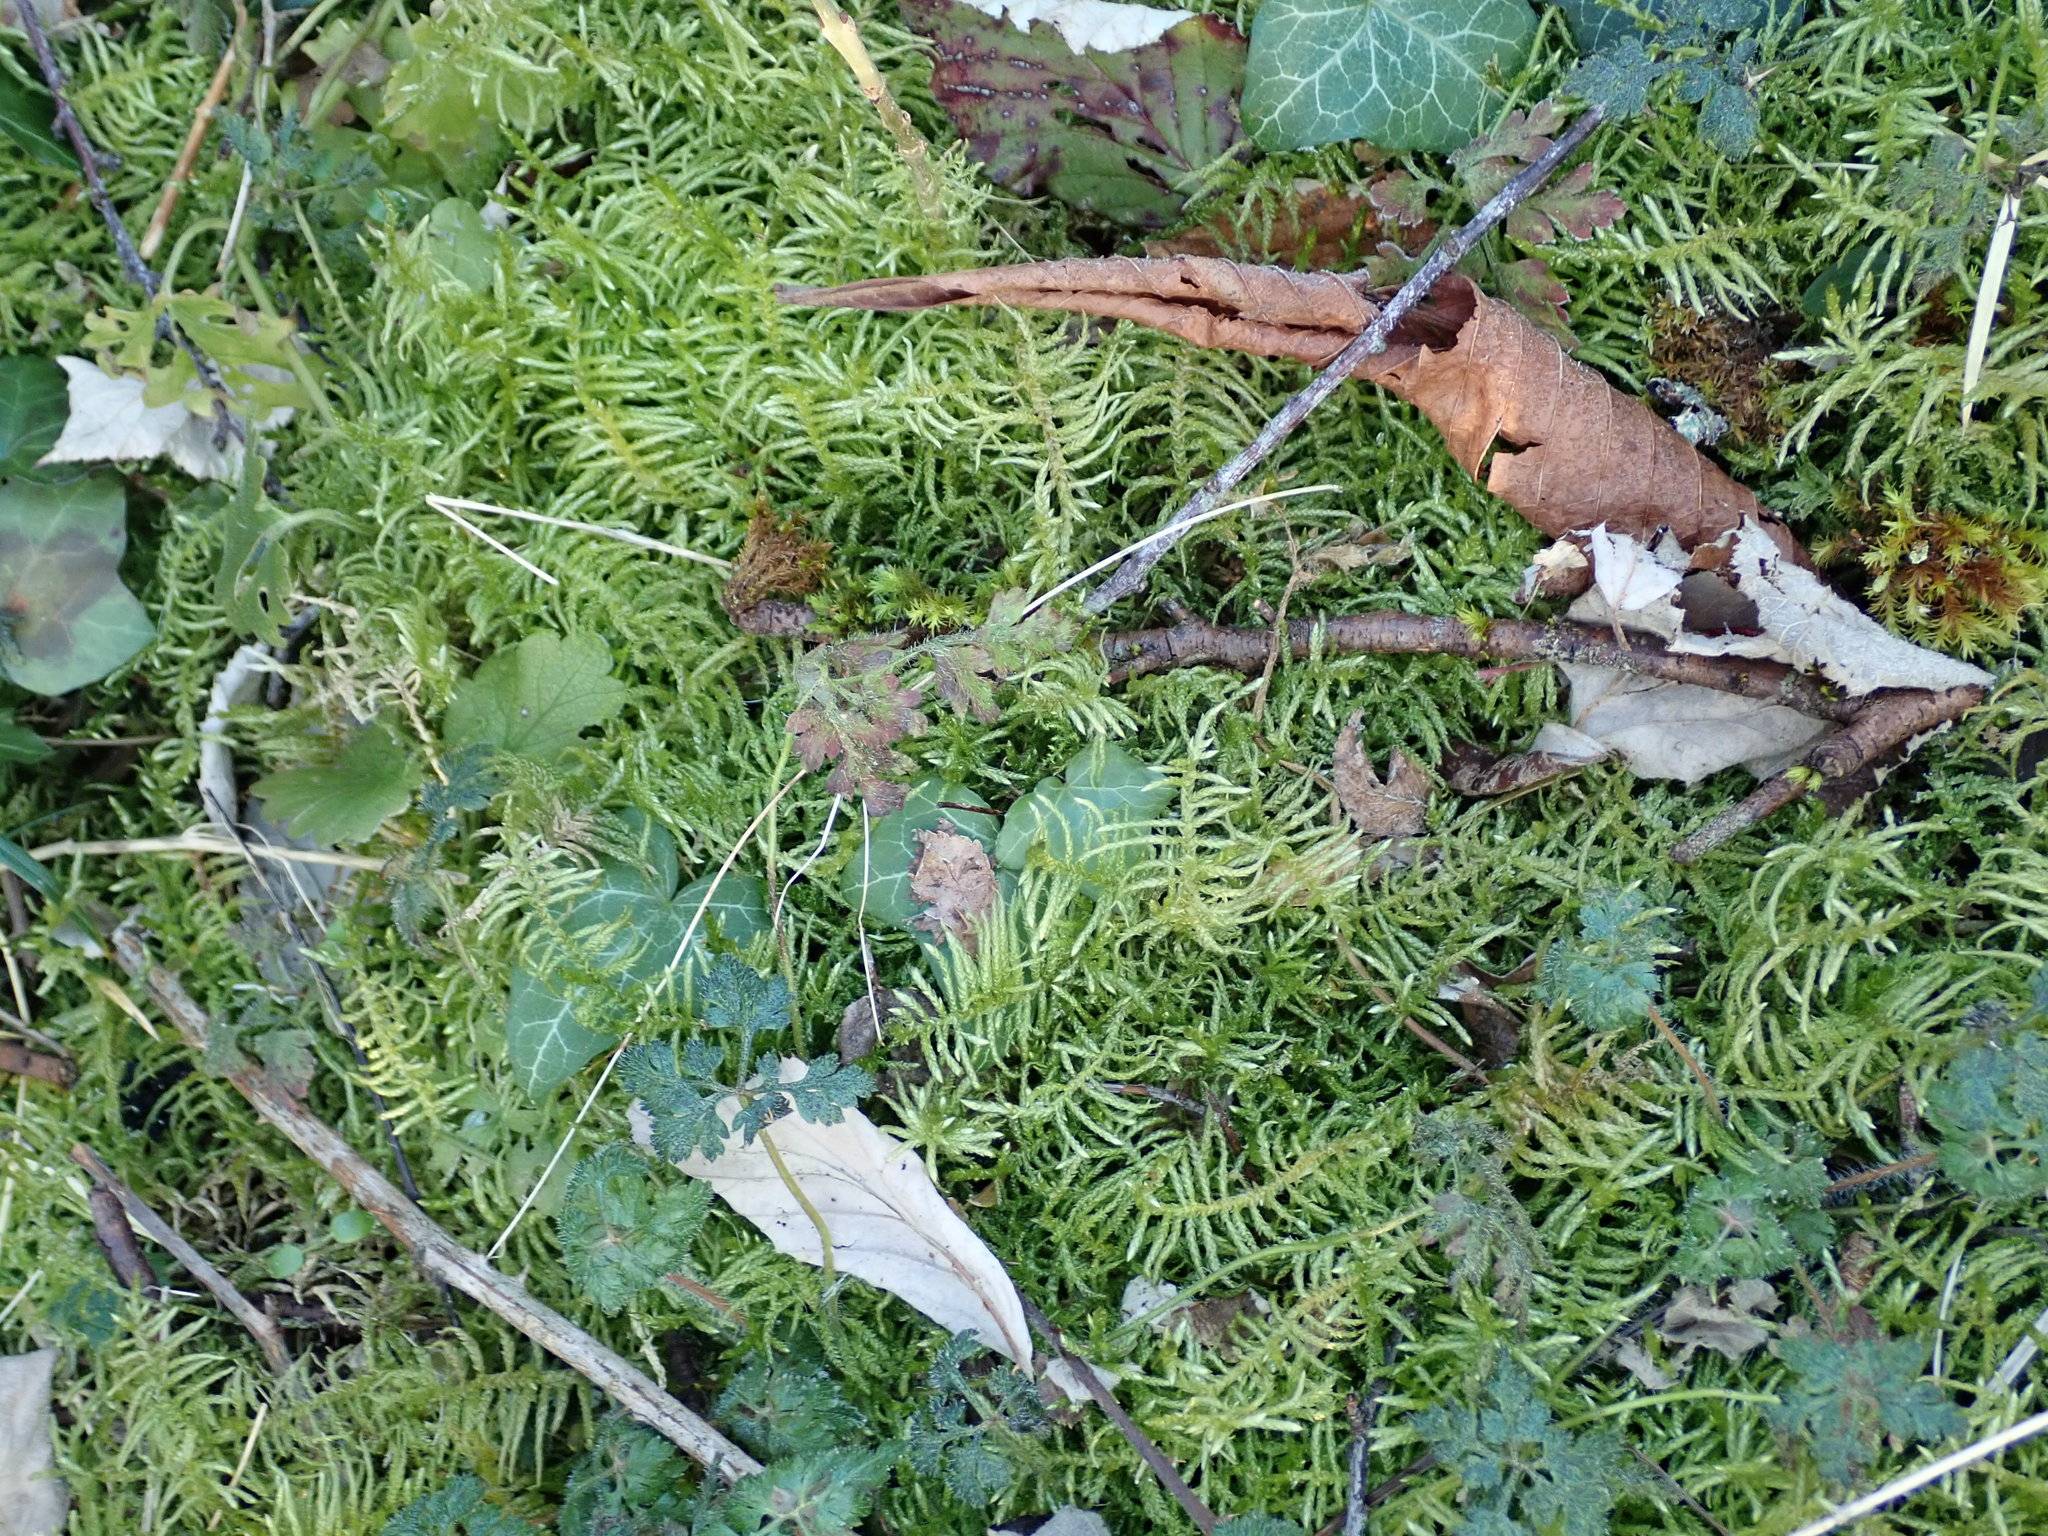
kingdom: Plantae
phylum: Bryophyta
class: Bryopsida
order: Hypnales
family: Brachytheciaceae
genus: Pseudoscleropodium
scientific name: Pseudoscleropodium purum
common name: Neat feather-moss
